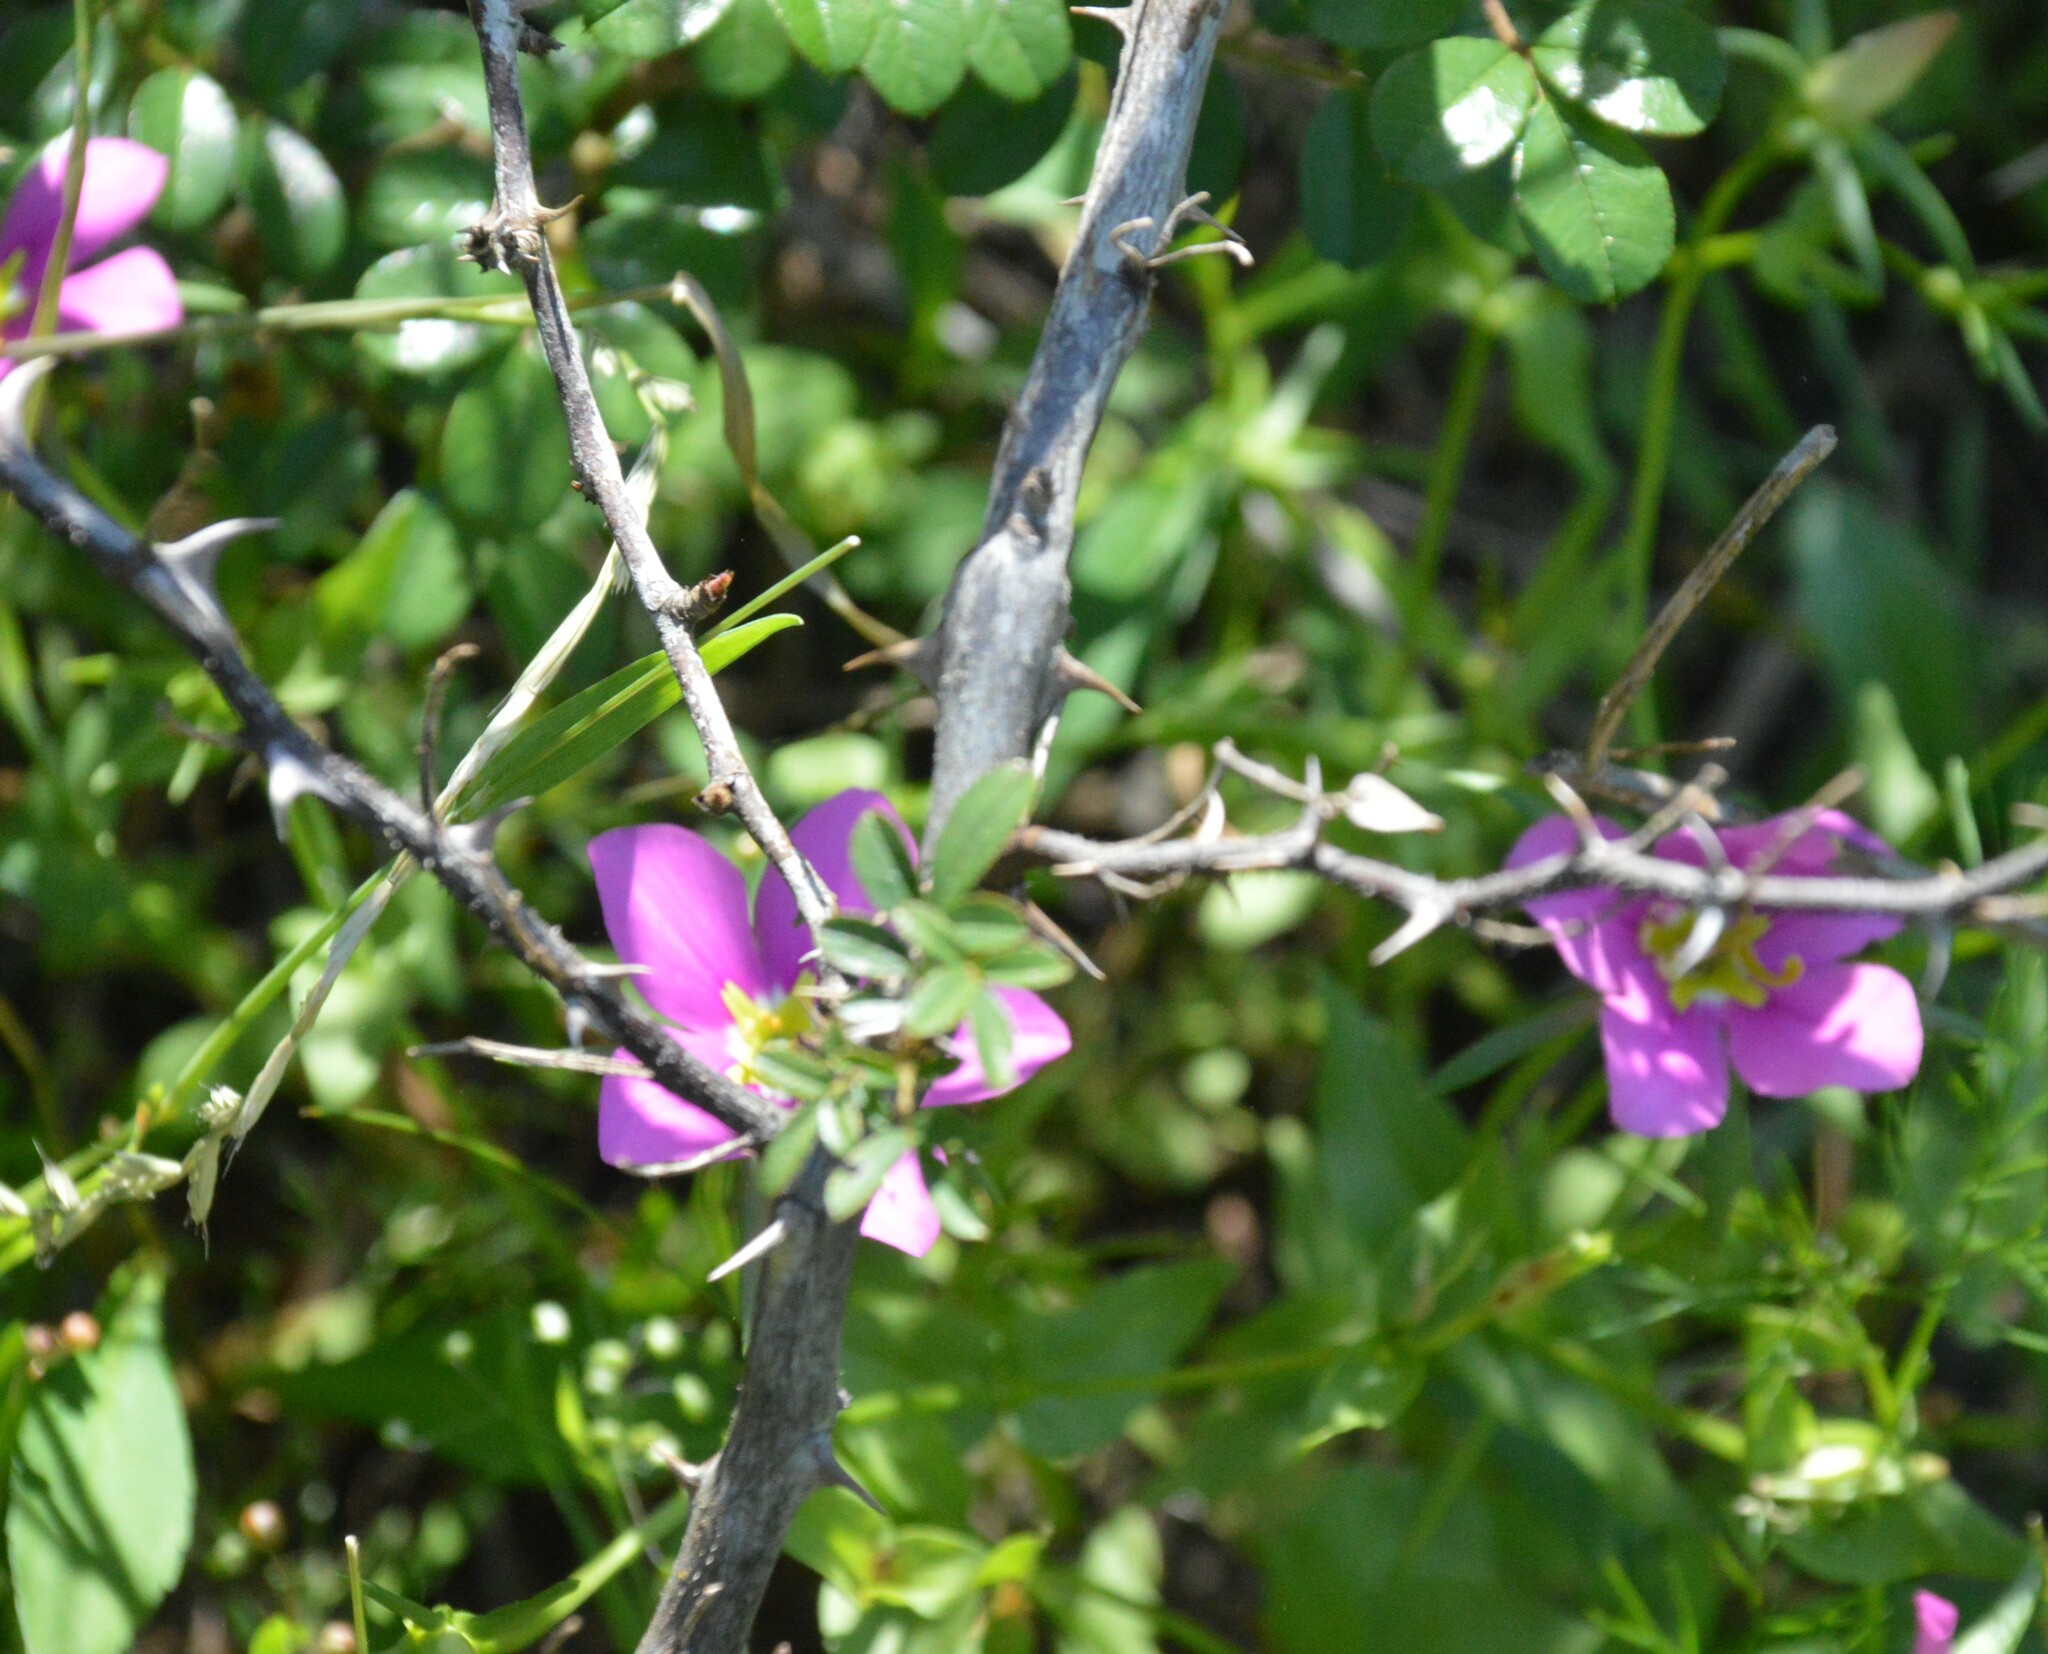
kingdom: Plantae
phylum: Tracheophyta
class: Magnoliopsida
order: Gentianales
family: Gentianaceae
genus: Sabatia
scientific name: Sabatia campestris
